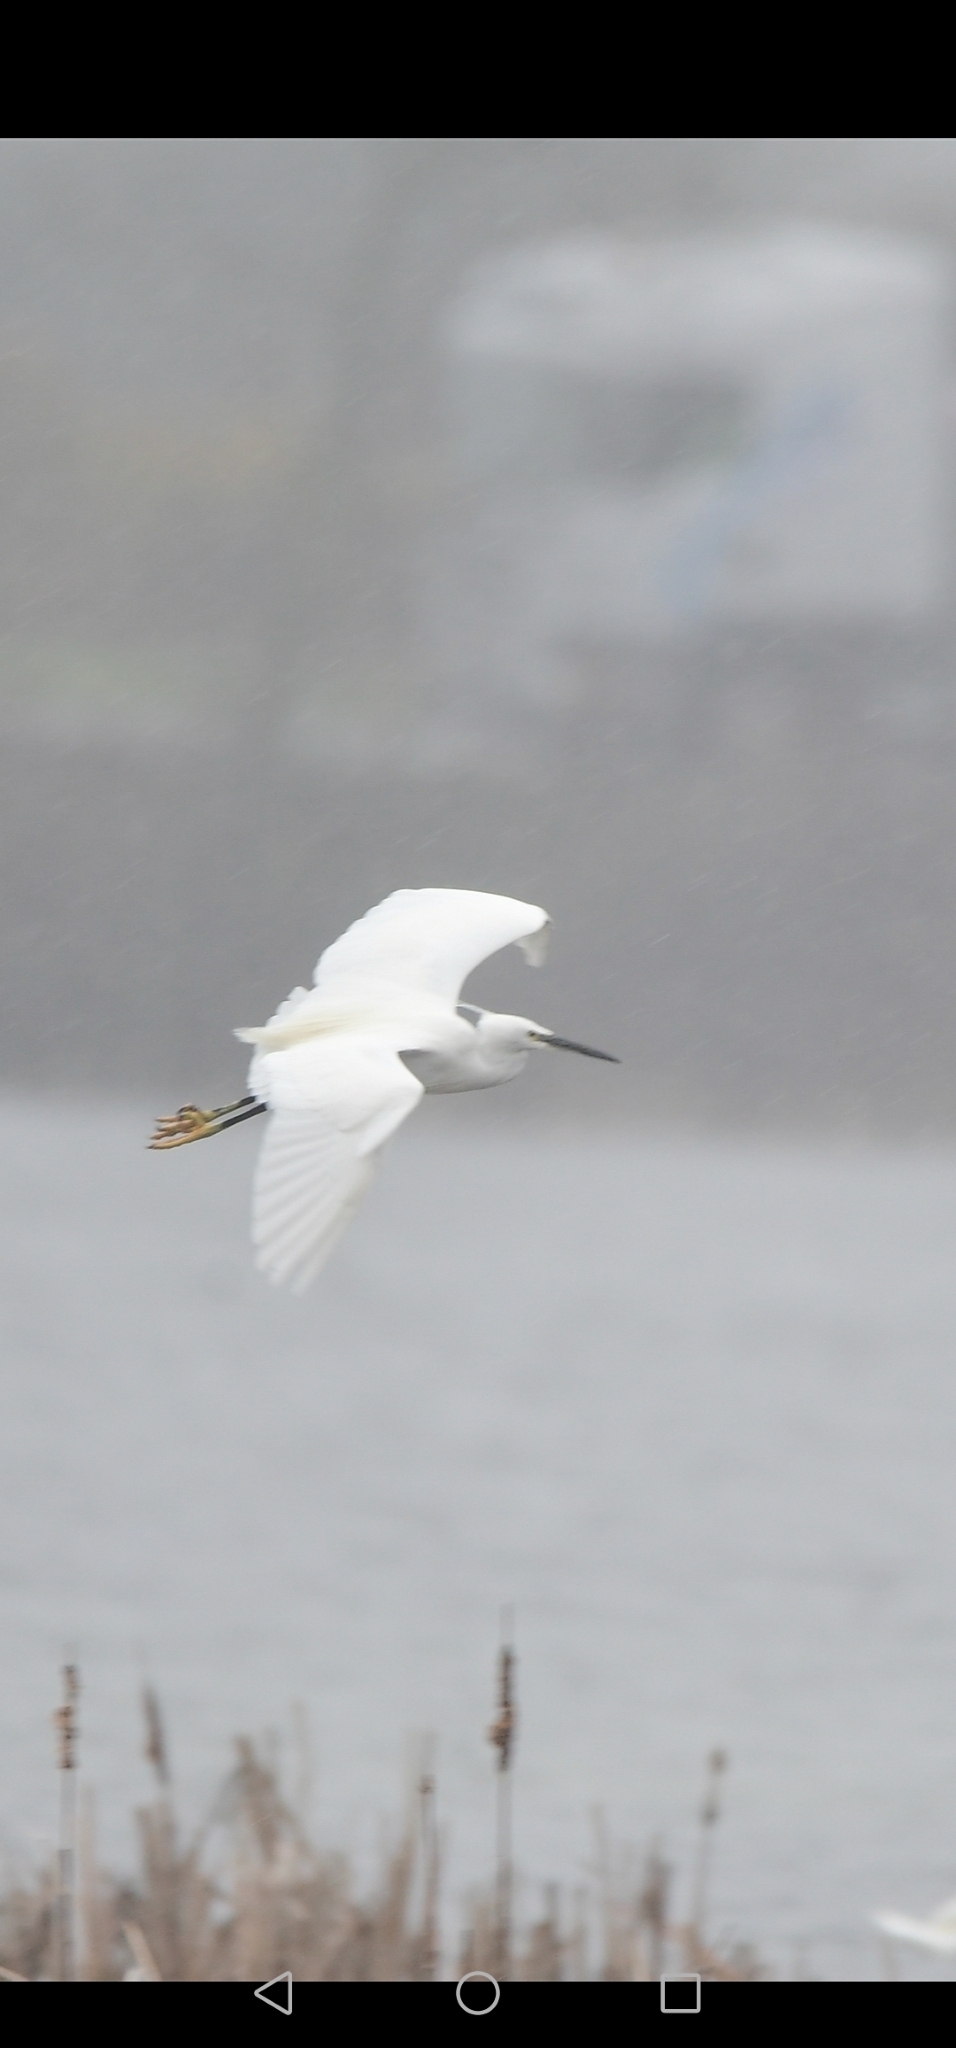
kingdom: Animalia
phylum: Chordata
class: Aves
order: Pelecaniformes
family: Ardeidae
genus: Egretta
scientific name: Egretta garzetta
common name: Little egret
